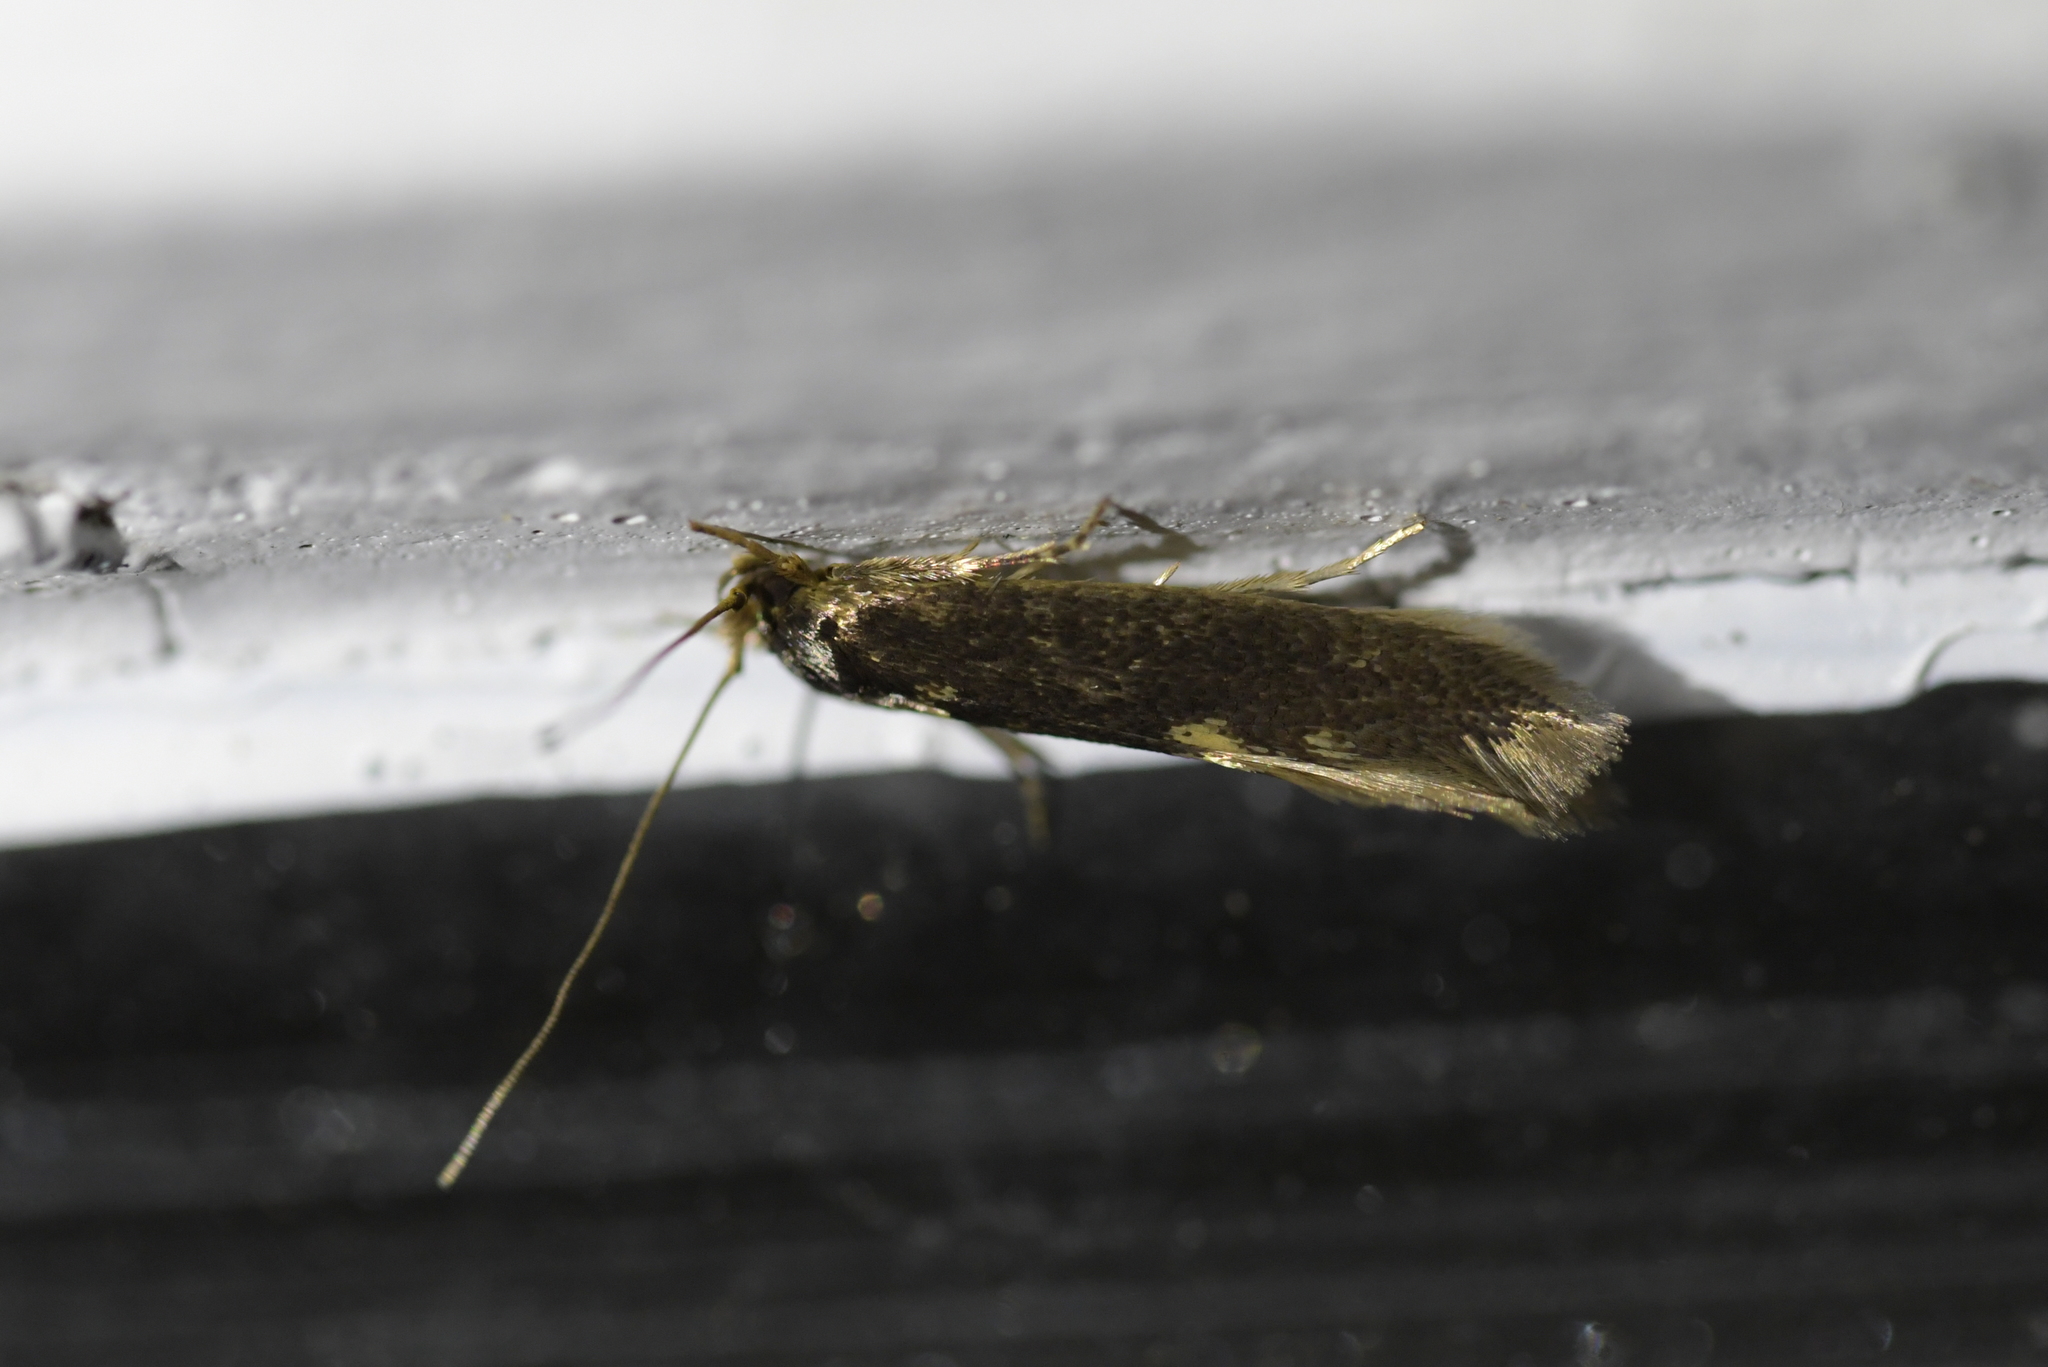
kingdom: Animalia
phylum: Arthropoda
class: Insecta
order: Lepidoptera
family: Tineidae
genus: Opogona
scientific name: Opogona omoscopa
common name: Moth
